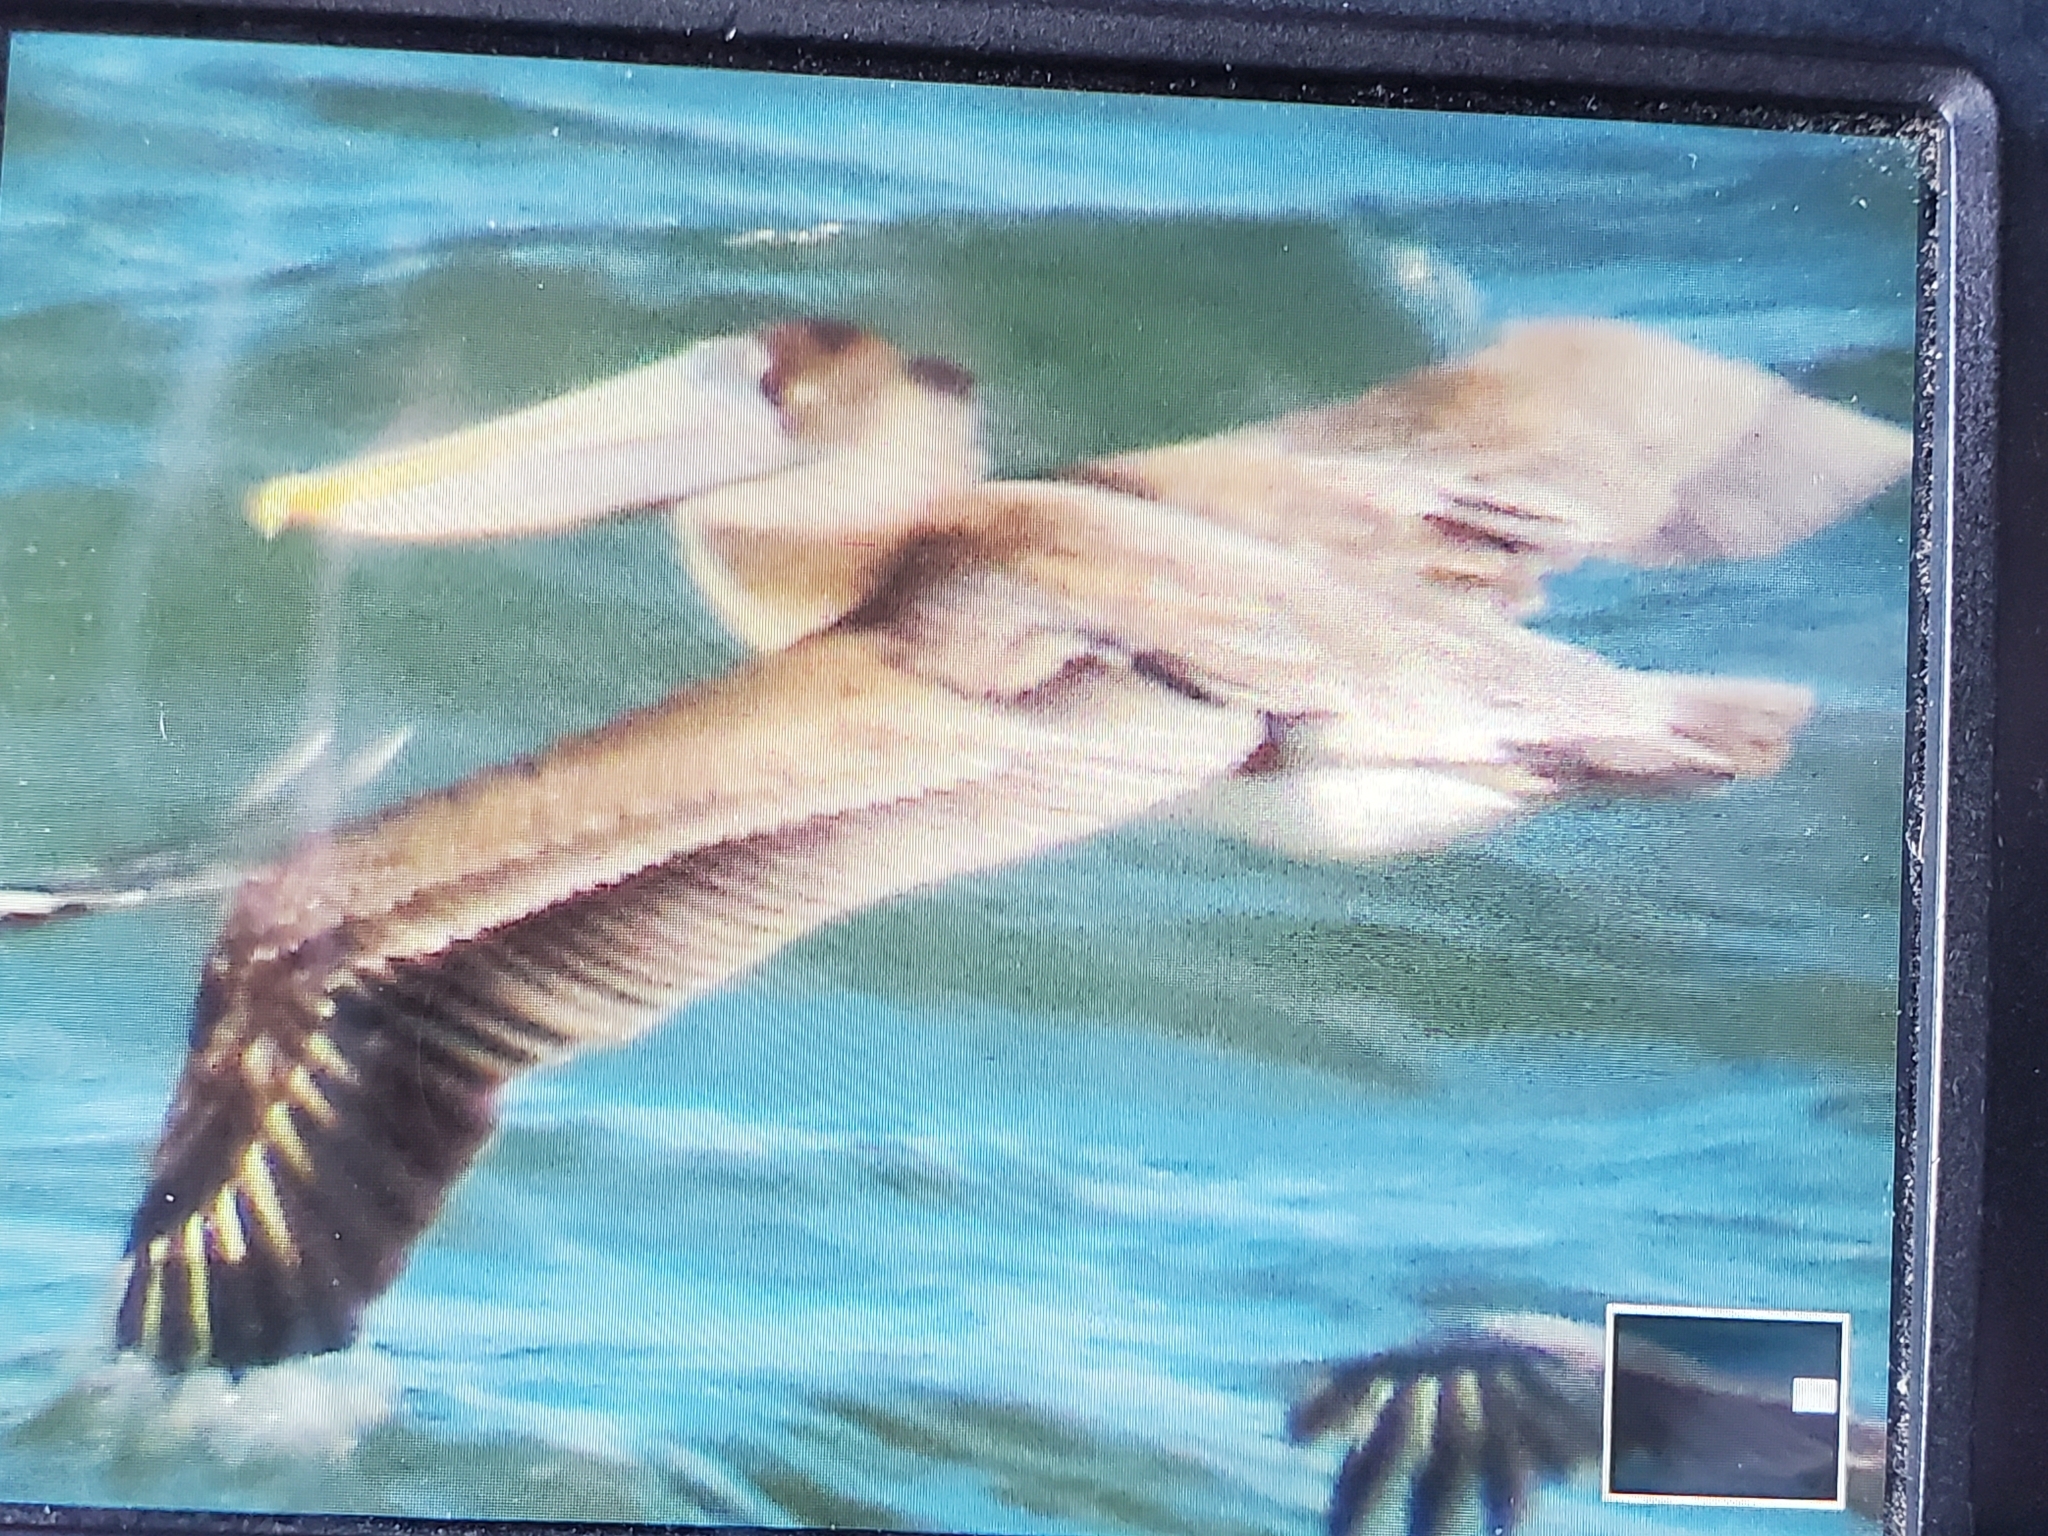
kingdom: Animalia
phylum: Chordata
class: Aves
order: Pelecaniformes
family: Pelecanidae
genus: Pelecanus
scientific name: Pelecanus occidentalis
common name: Brown pelican
